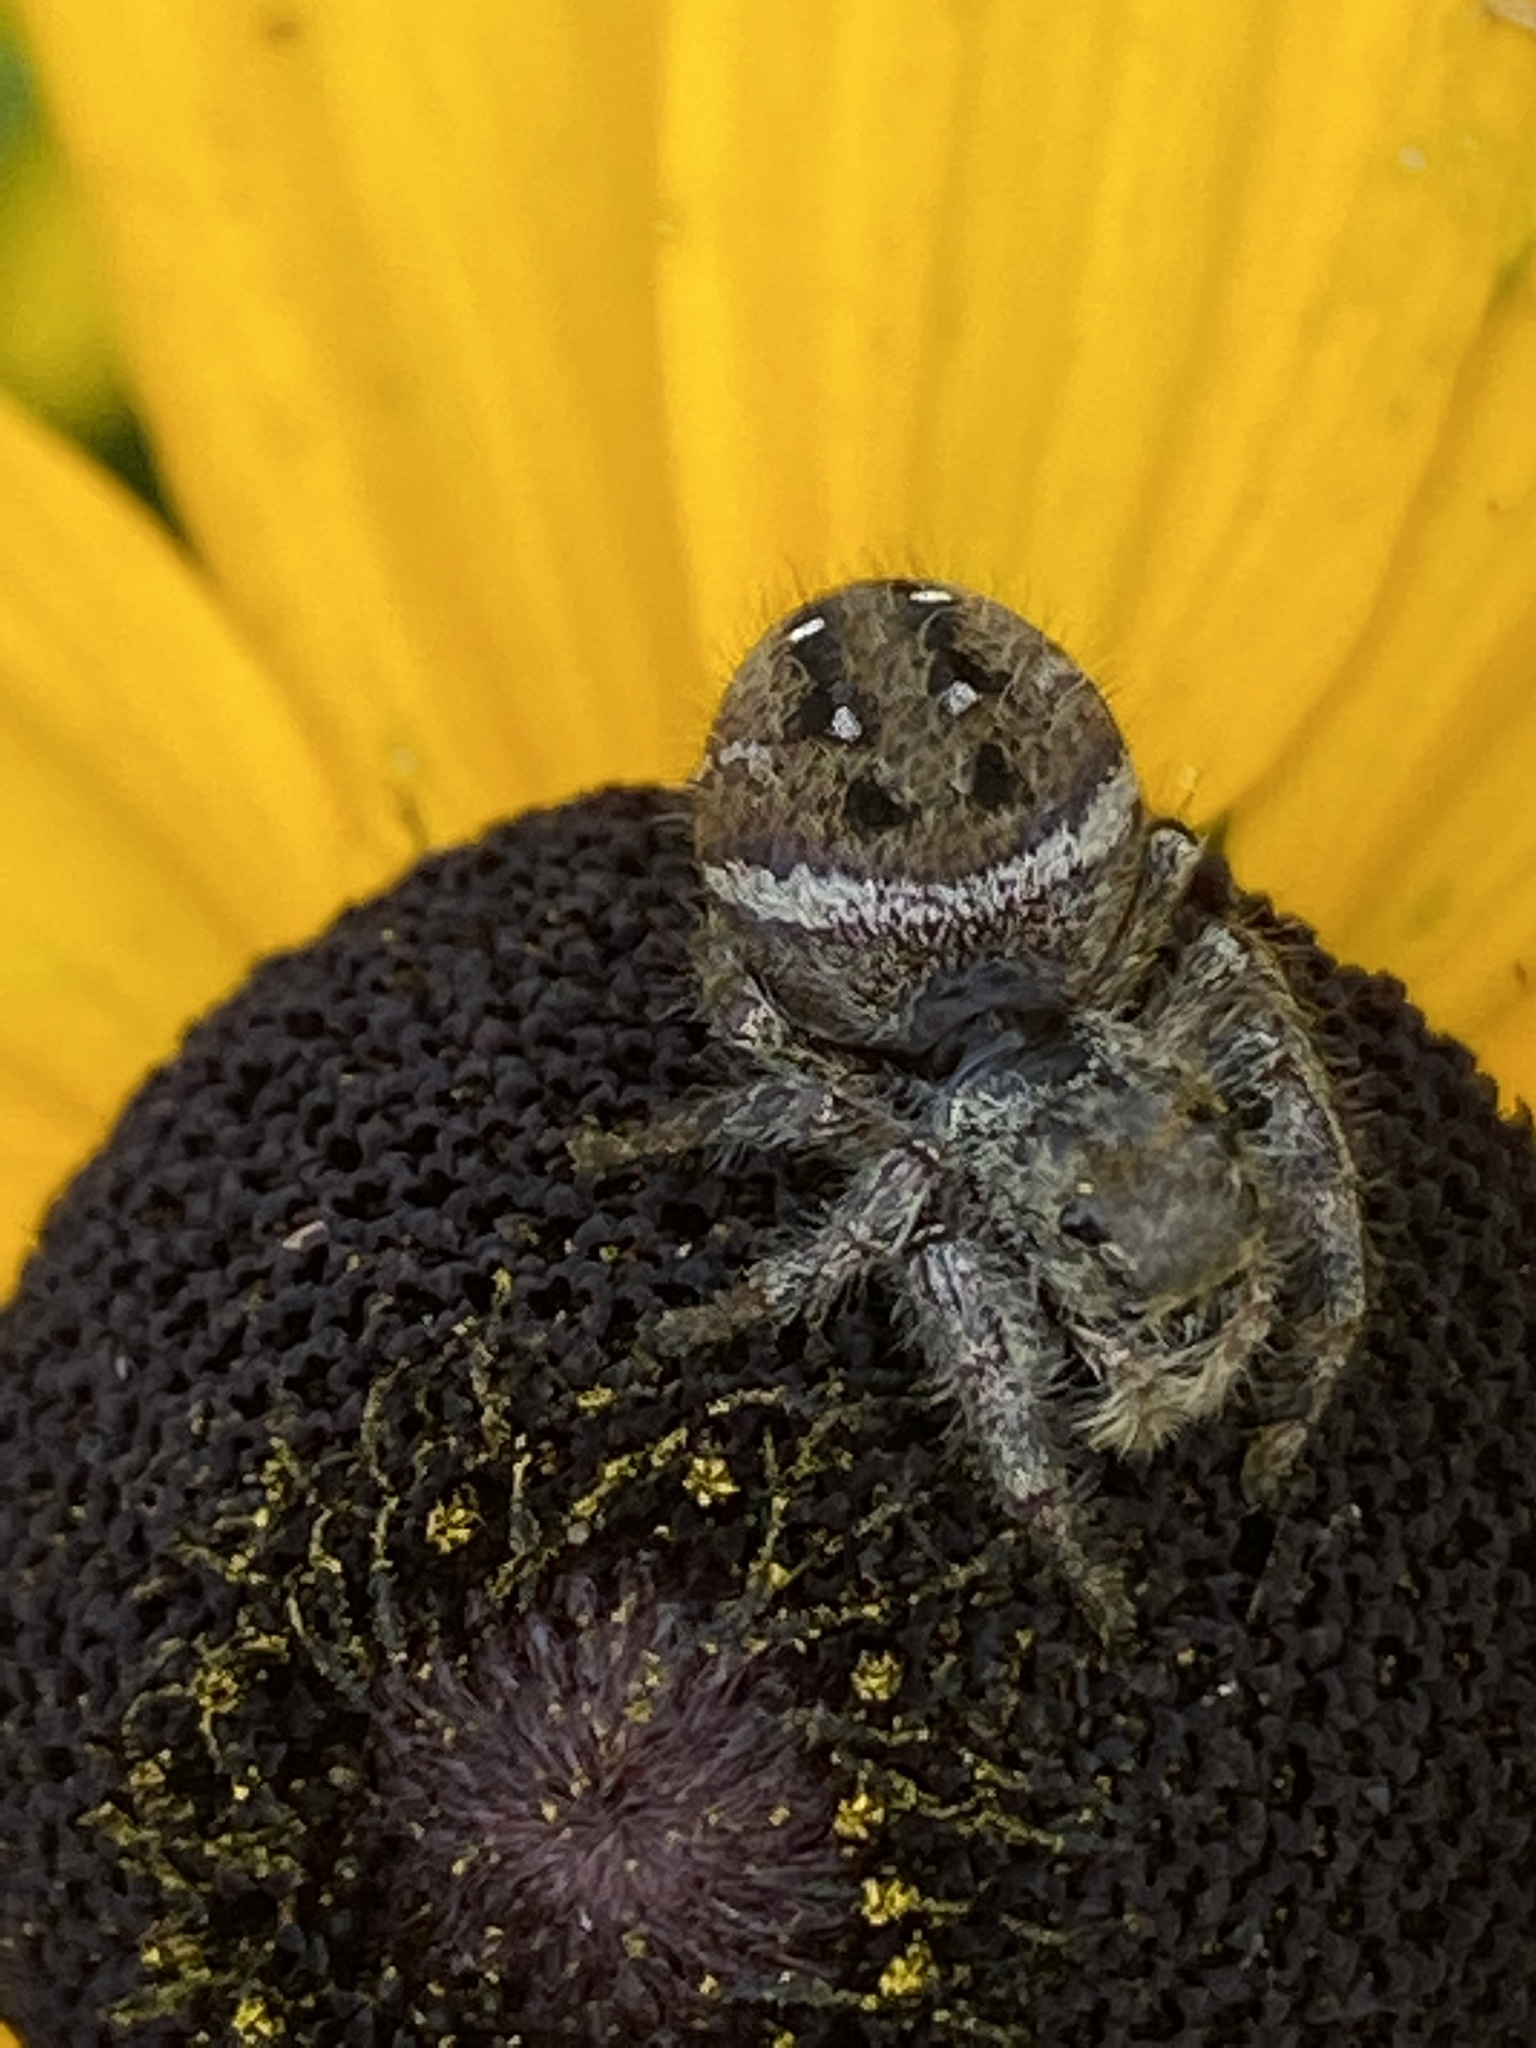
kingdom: Animalia
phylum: Arthropoda
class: Arachnida
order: Araneae
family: Salticidae
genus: Phidippus
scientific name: Phidippus clarus
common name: Brilliant jumping spider
